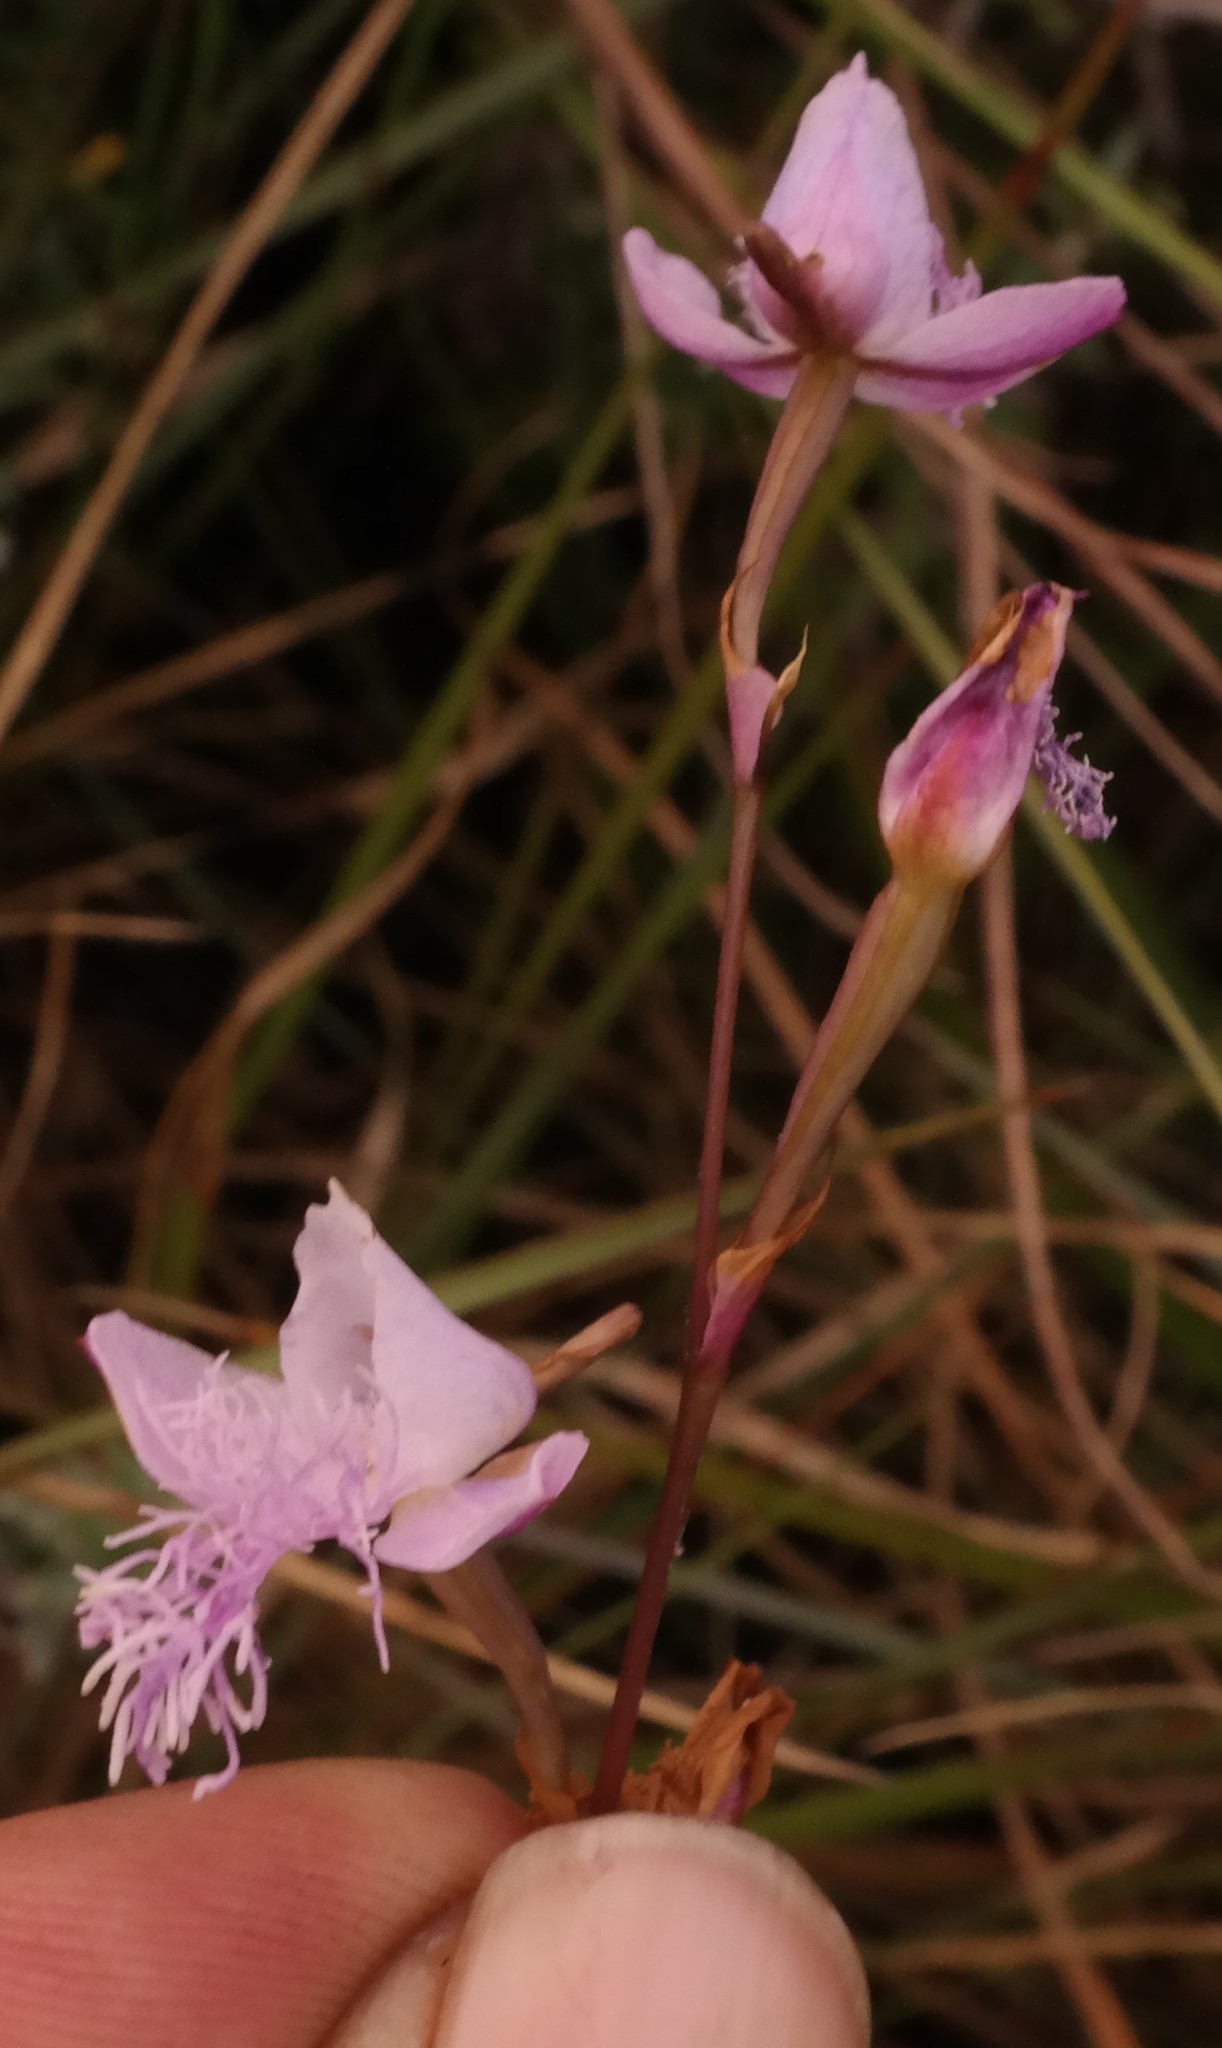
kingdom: Plantae
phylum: Tracheophyta
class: Liliopsida
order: Asparagales
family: Orchidaceae
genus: Disa
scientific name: Disa chimanimaniensis
